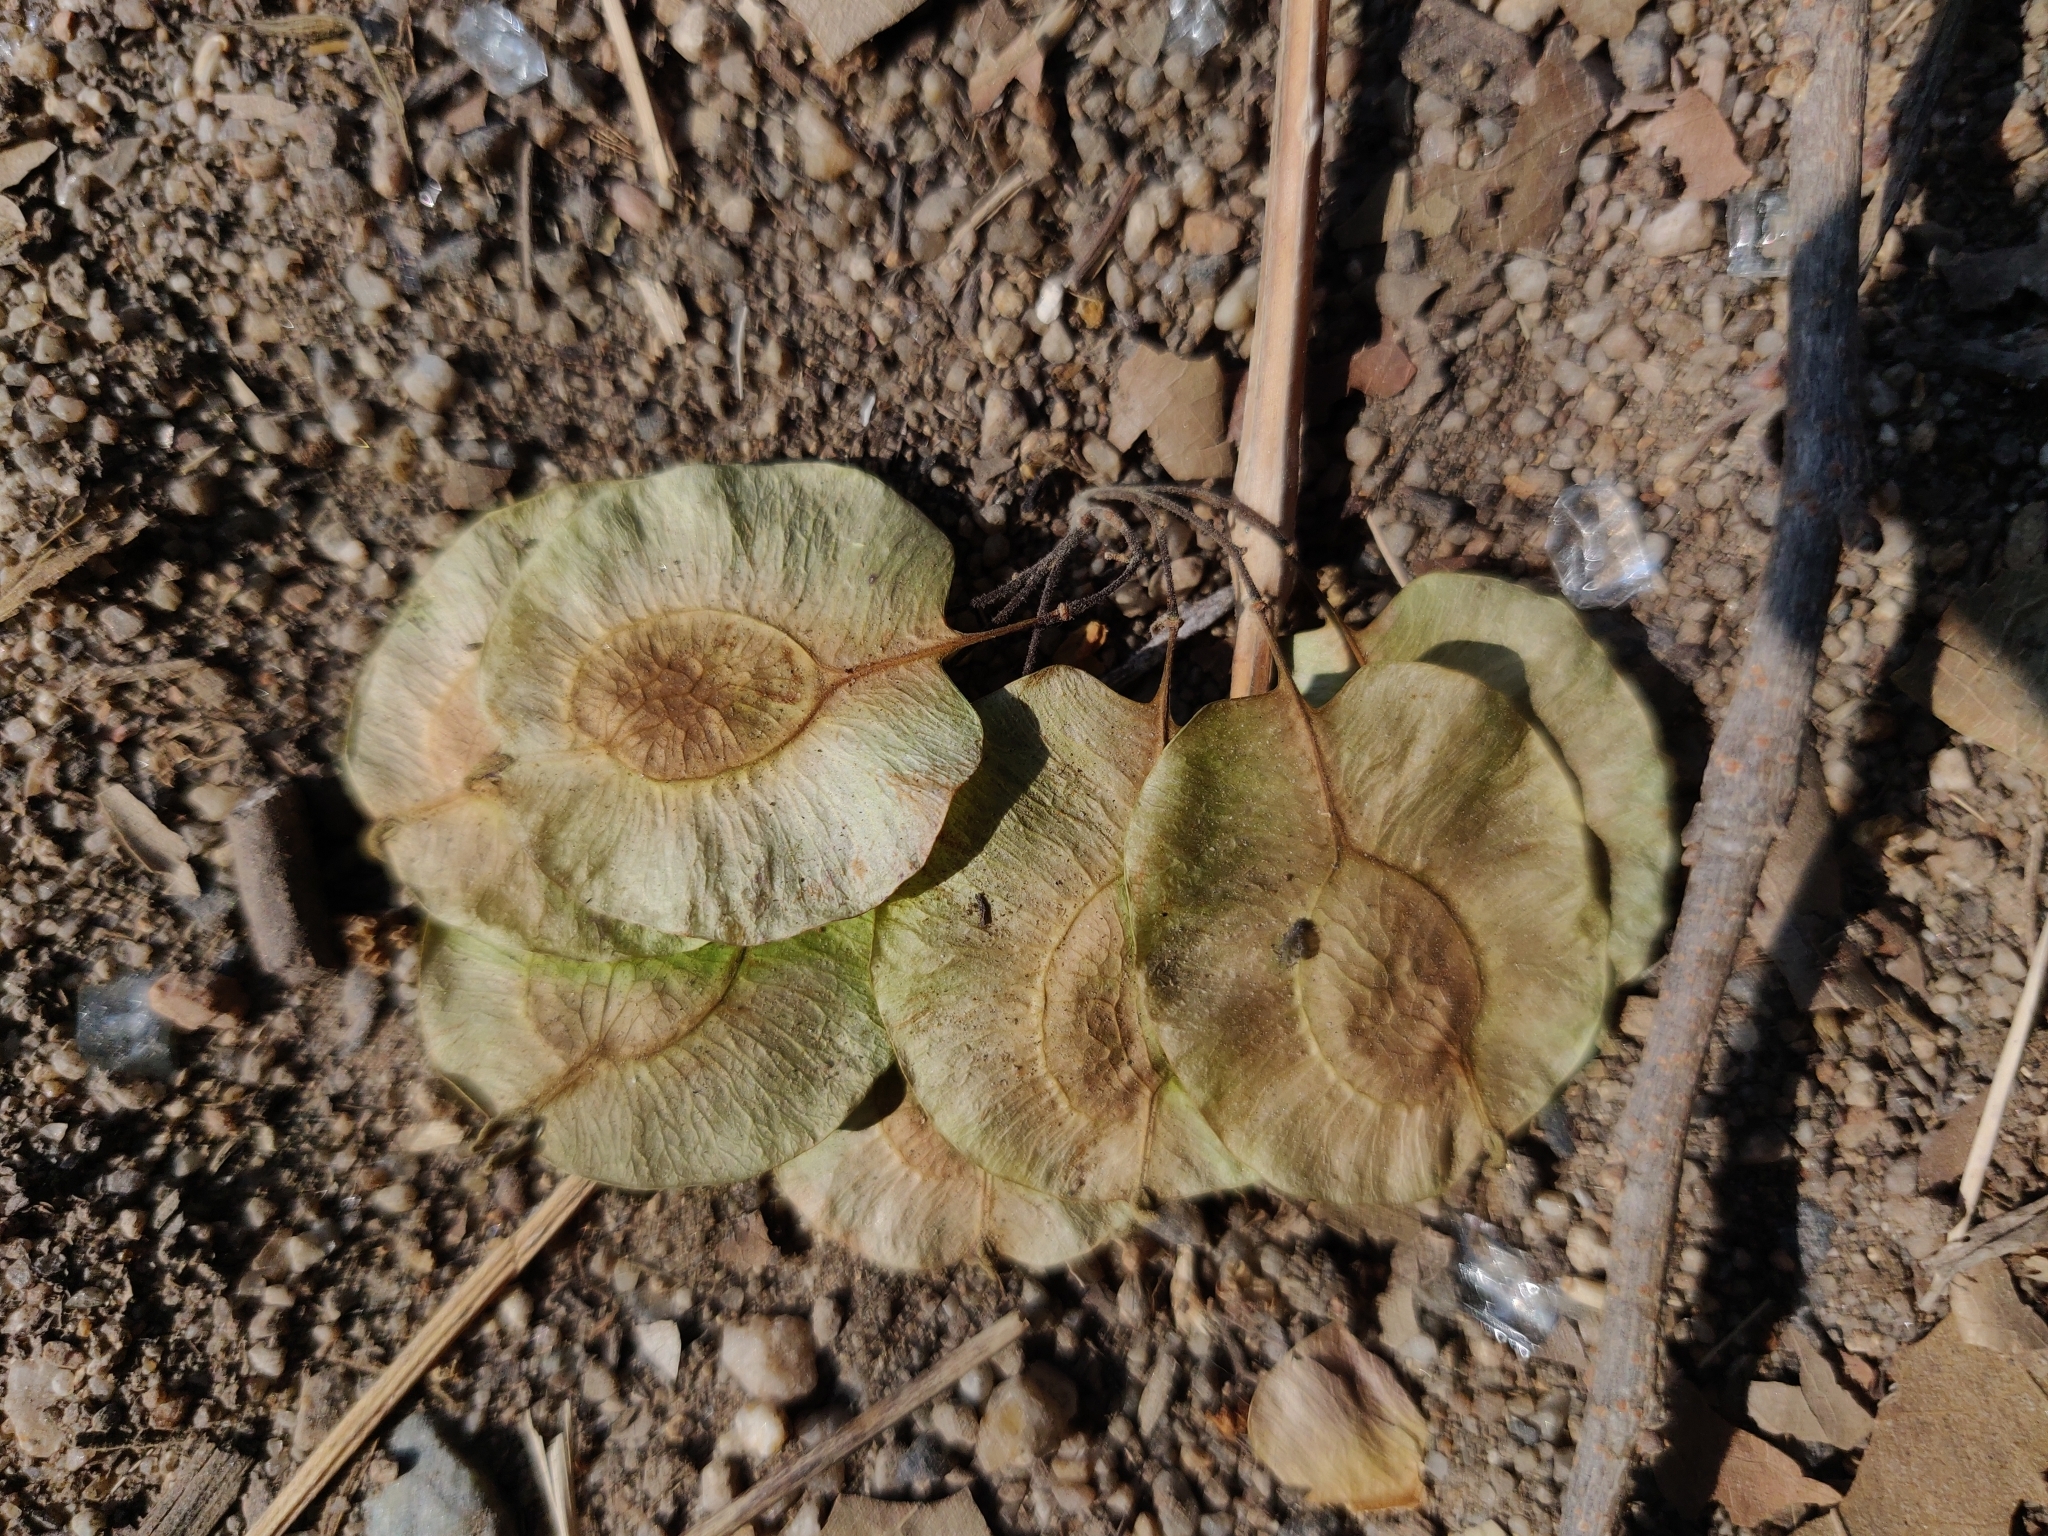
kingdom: Plantae
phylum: Tracheophyta
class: Magnoliopsida
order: Rosales
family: Ulmaceae
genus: Holoptelea
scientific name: Holoptelea integrifolia
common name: Indian-elm
